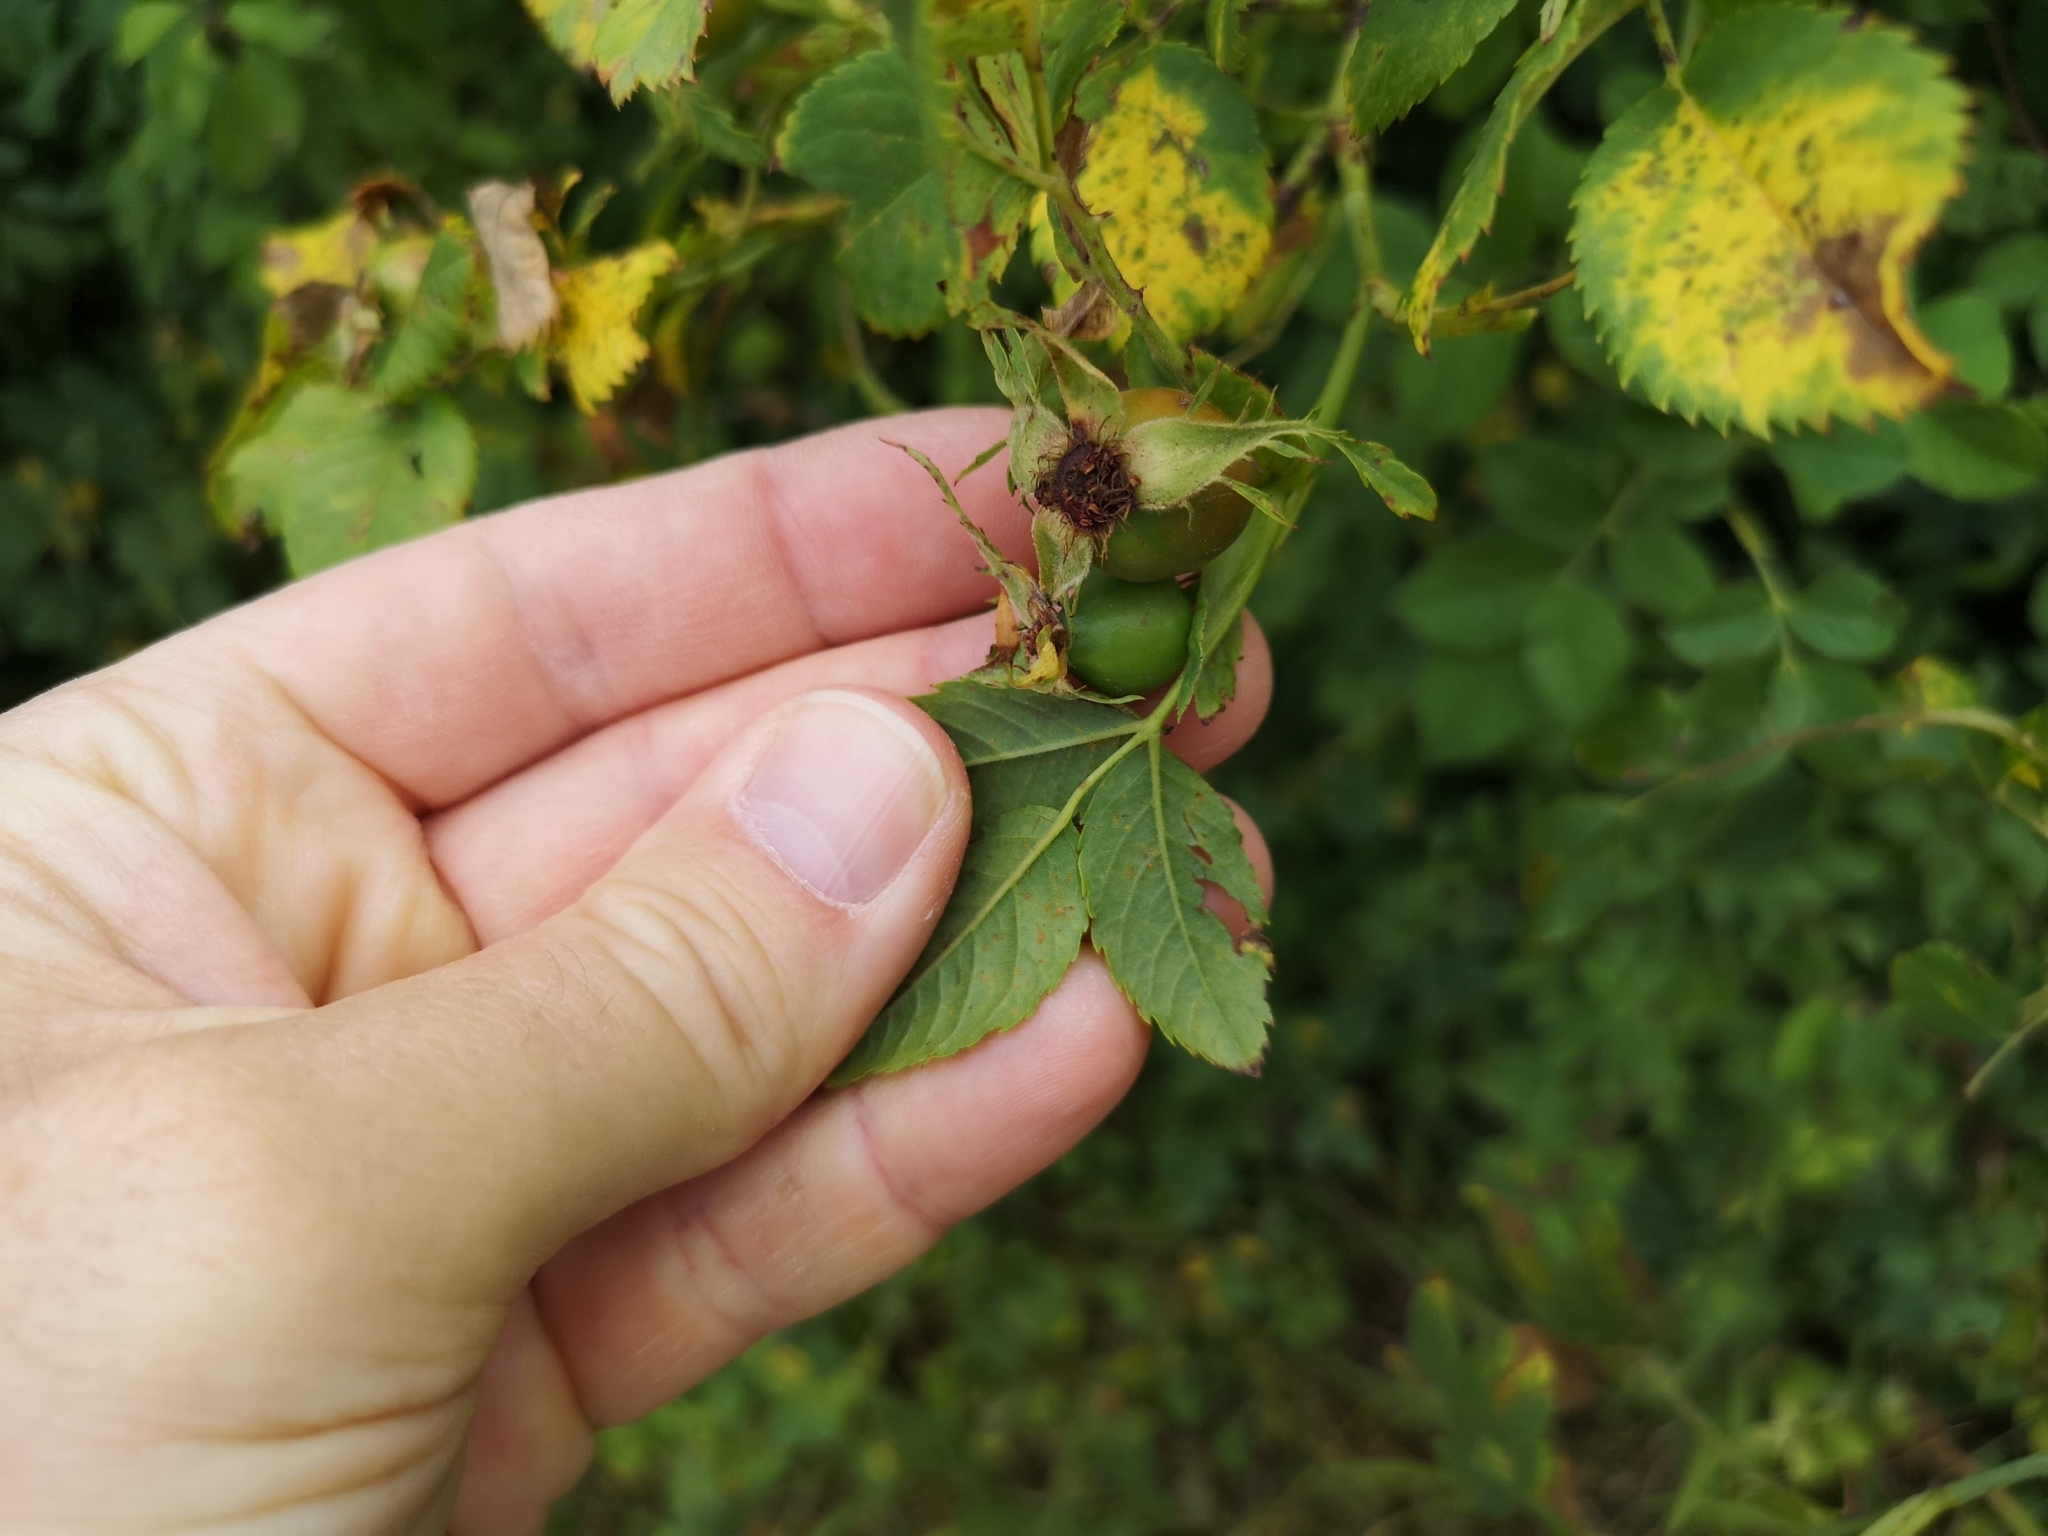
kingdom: Plantae
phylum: Tracheophyta
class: Magnoliopsida
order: Rosales
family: Rosaceae
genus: Rosa
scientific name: Rosa corymbifera
